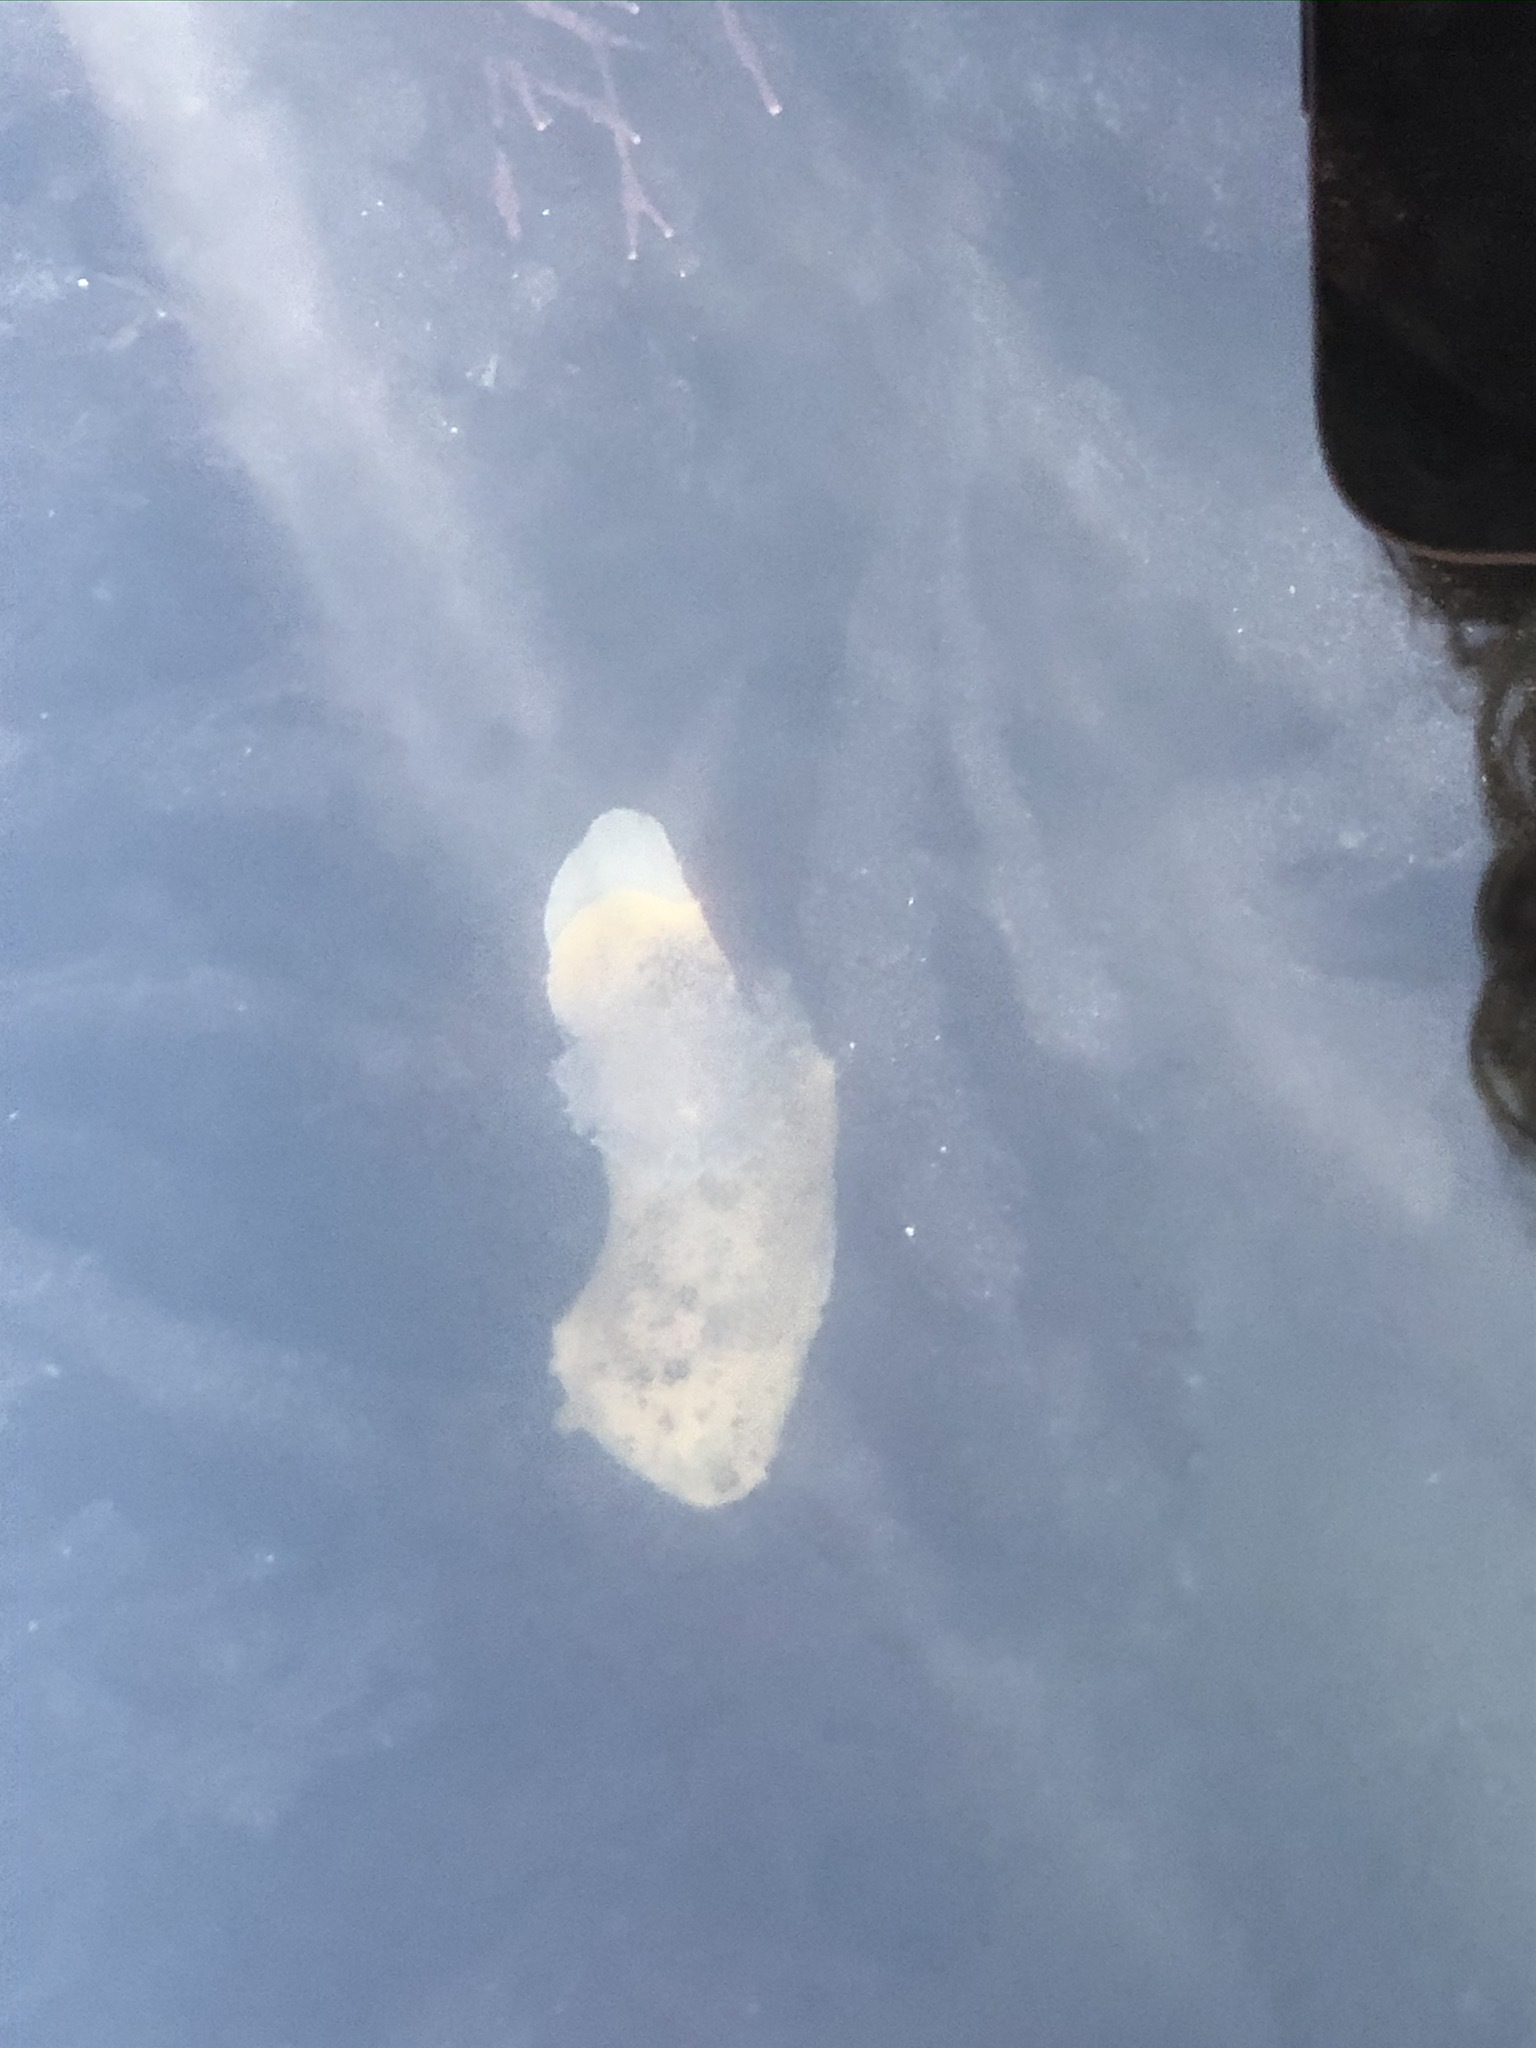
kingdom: Animalia
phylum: Mollusca
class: Gastropoda
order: Nudibranchia
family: Discodorididae
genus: Peltodoris
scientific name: Peltodoris nobilis
